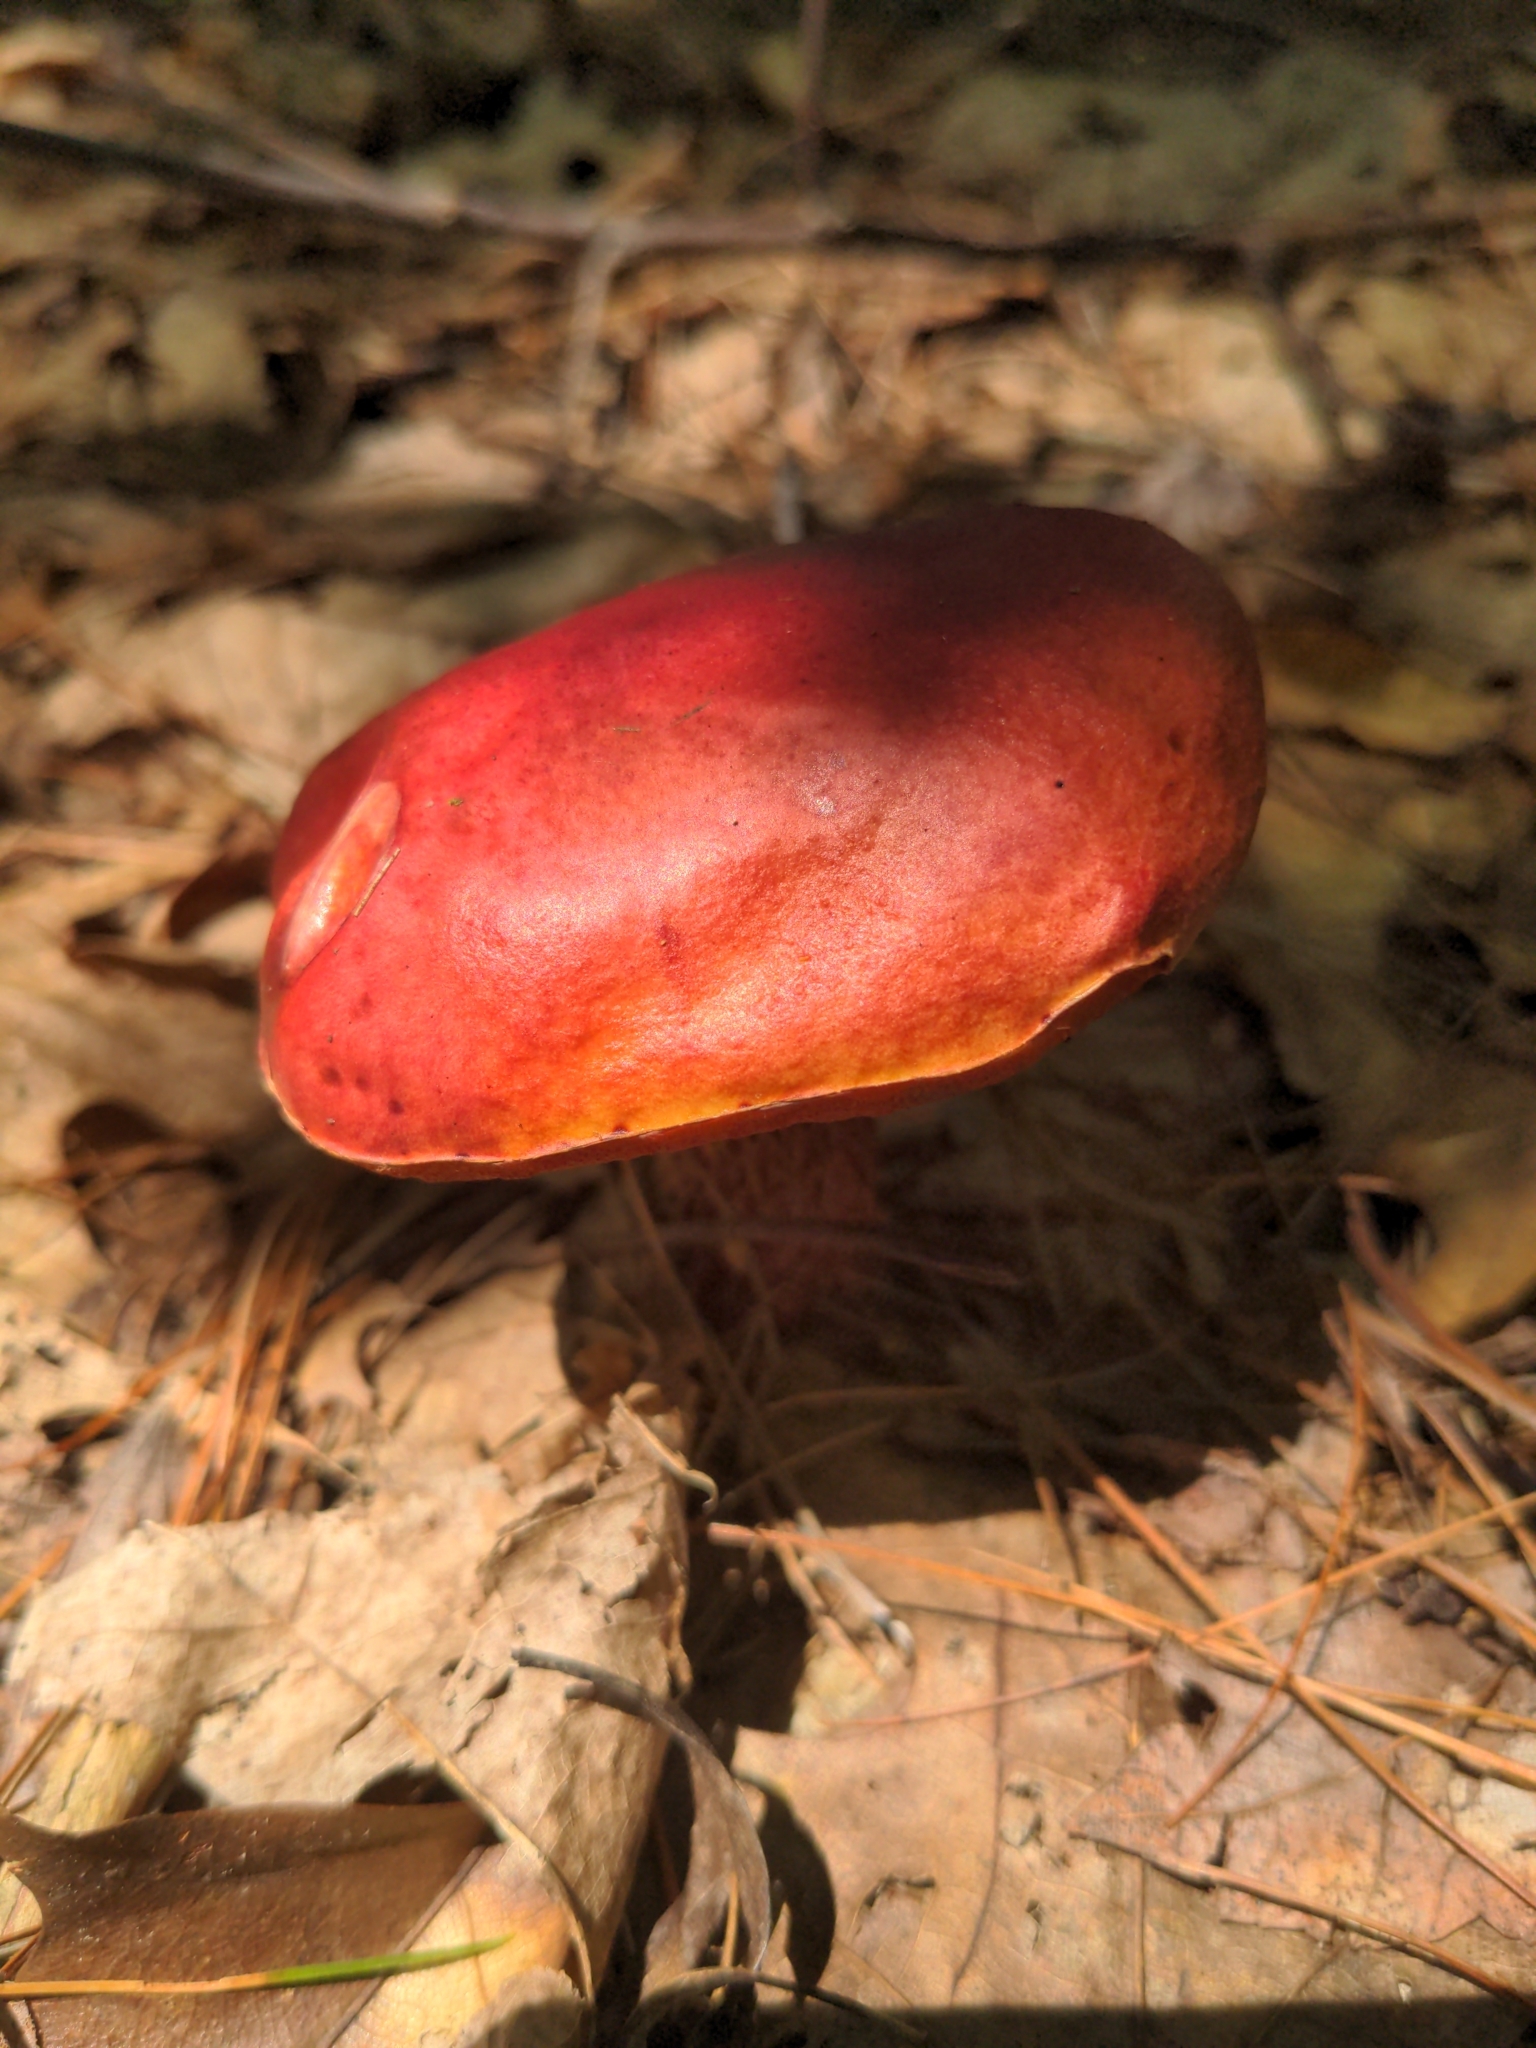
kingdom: Fungi
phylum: Basidiomycota
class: Agaricomycetes
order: Boletales
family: Boletaceae
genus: Butyriboletus
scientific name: Butyriboletus frostii
